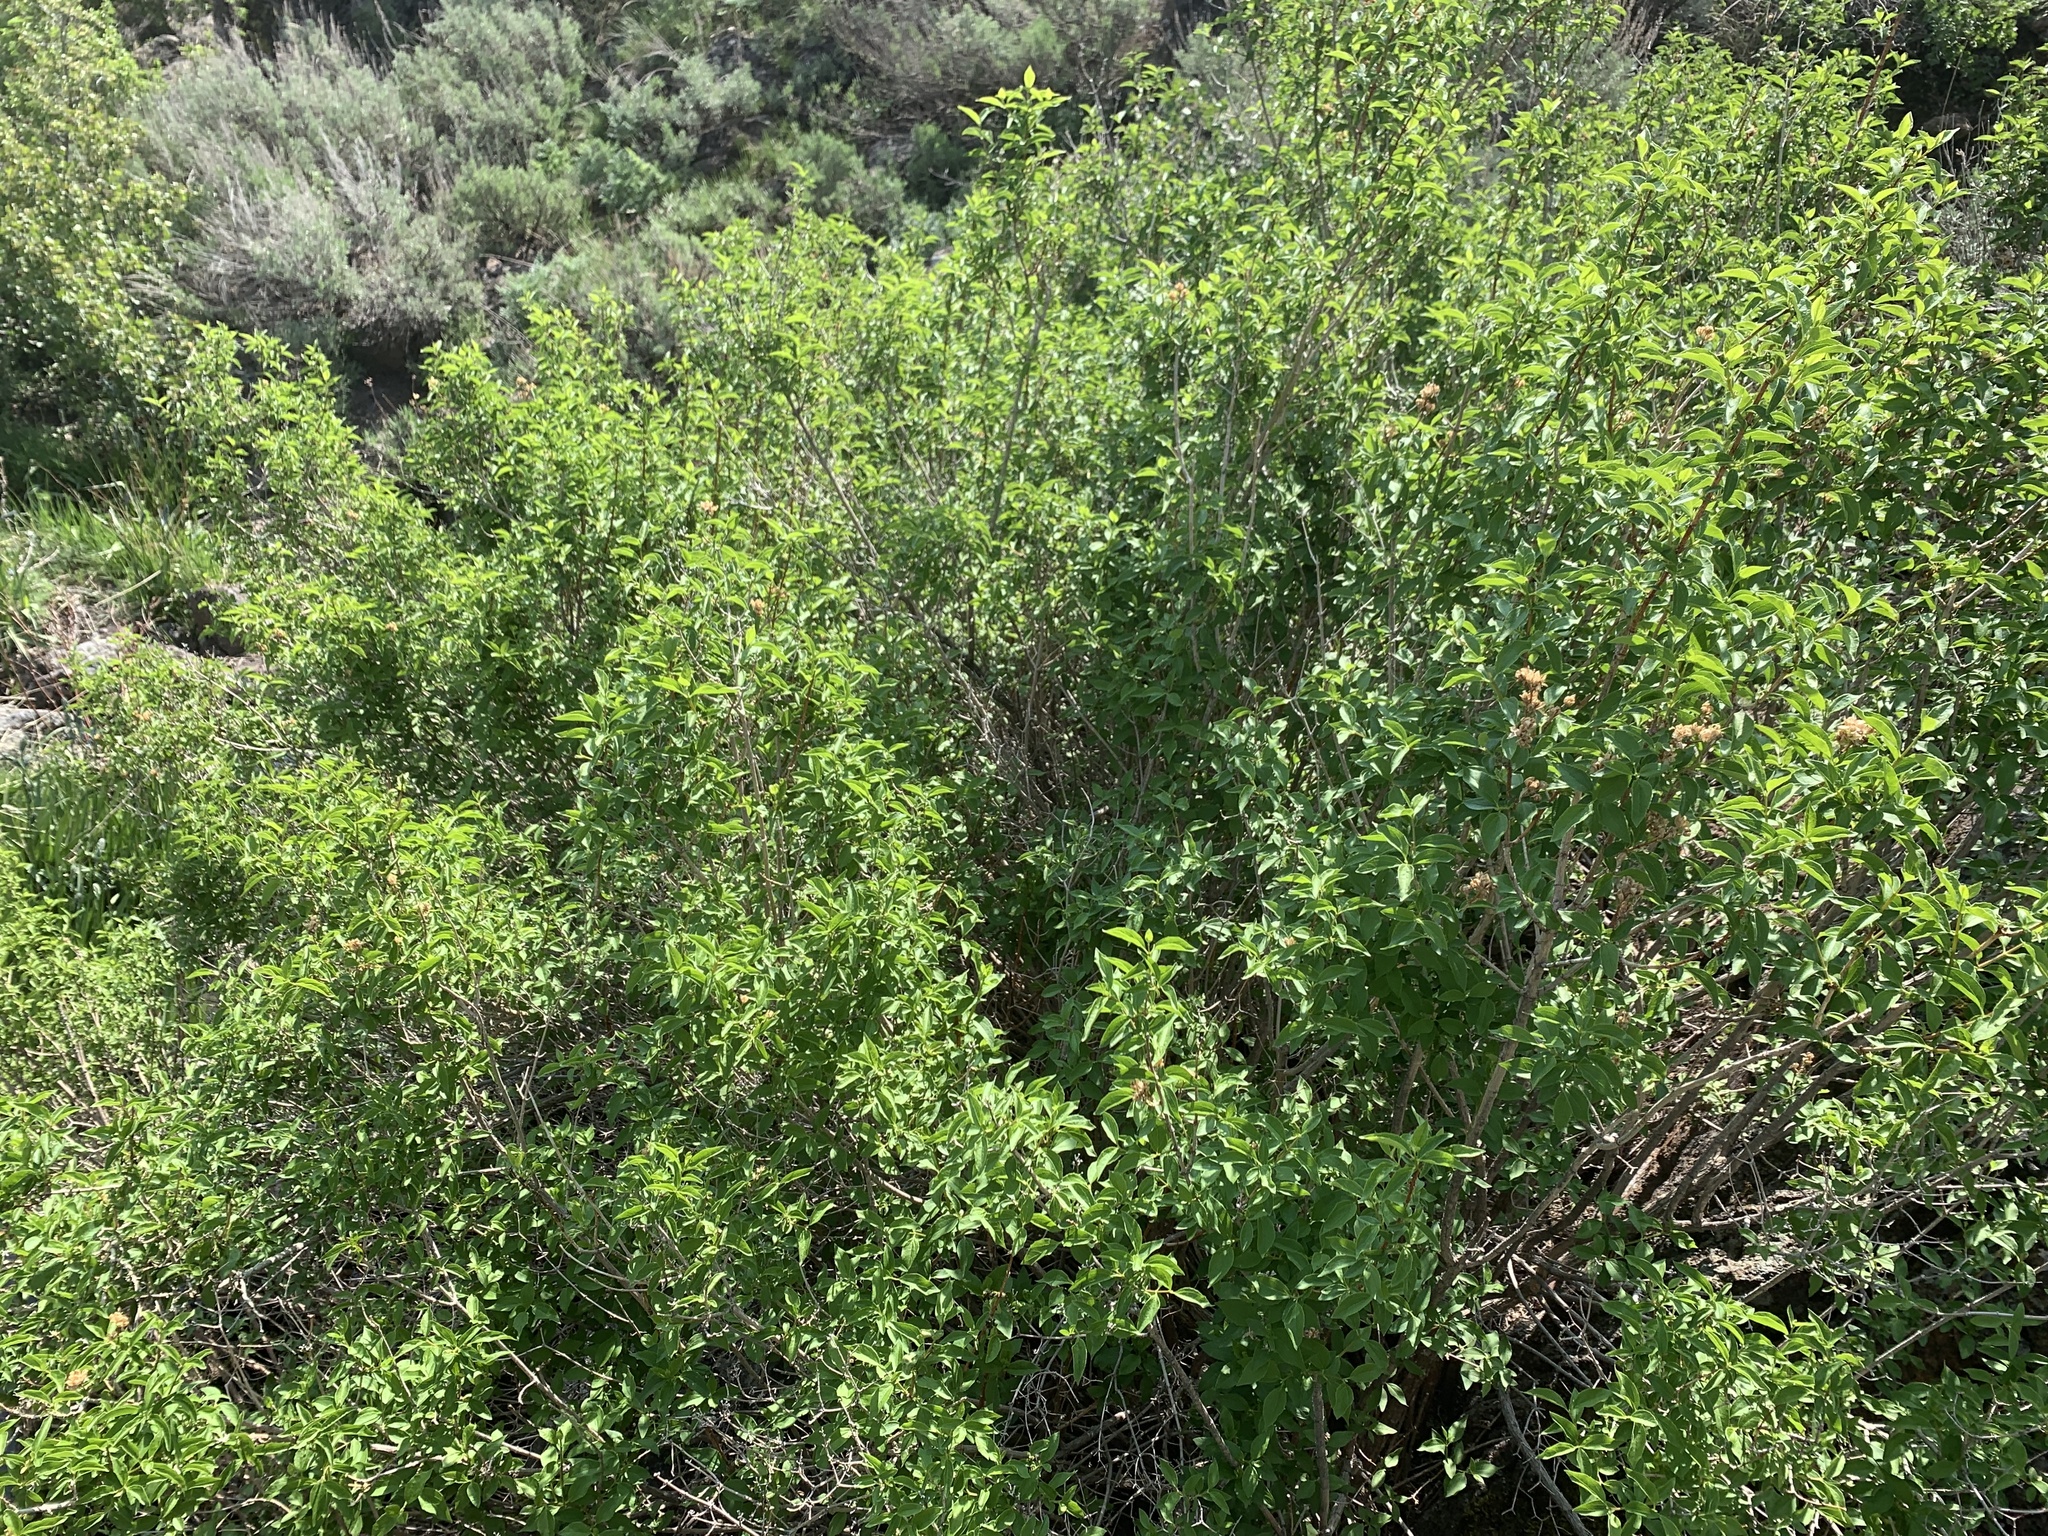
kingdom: Plantae
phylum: Tracheophyta
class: Magnoliopsida
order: Cornales
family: Hydrangeaceae
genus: Philadelphus
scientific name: Philadelphus lewisii
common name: Lewis's mock orange
